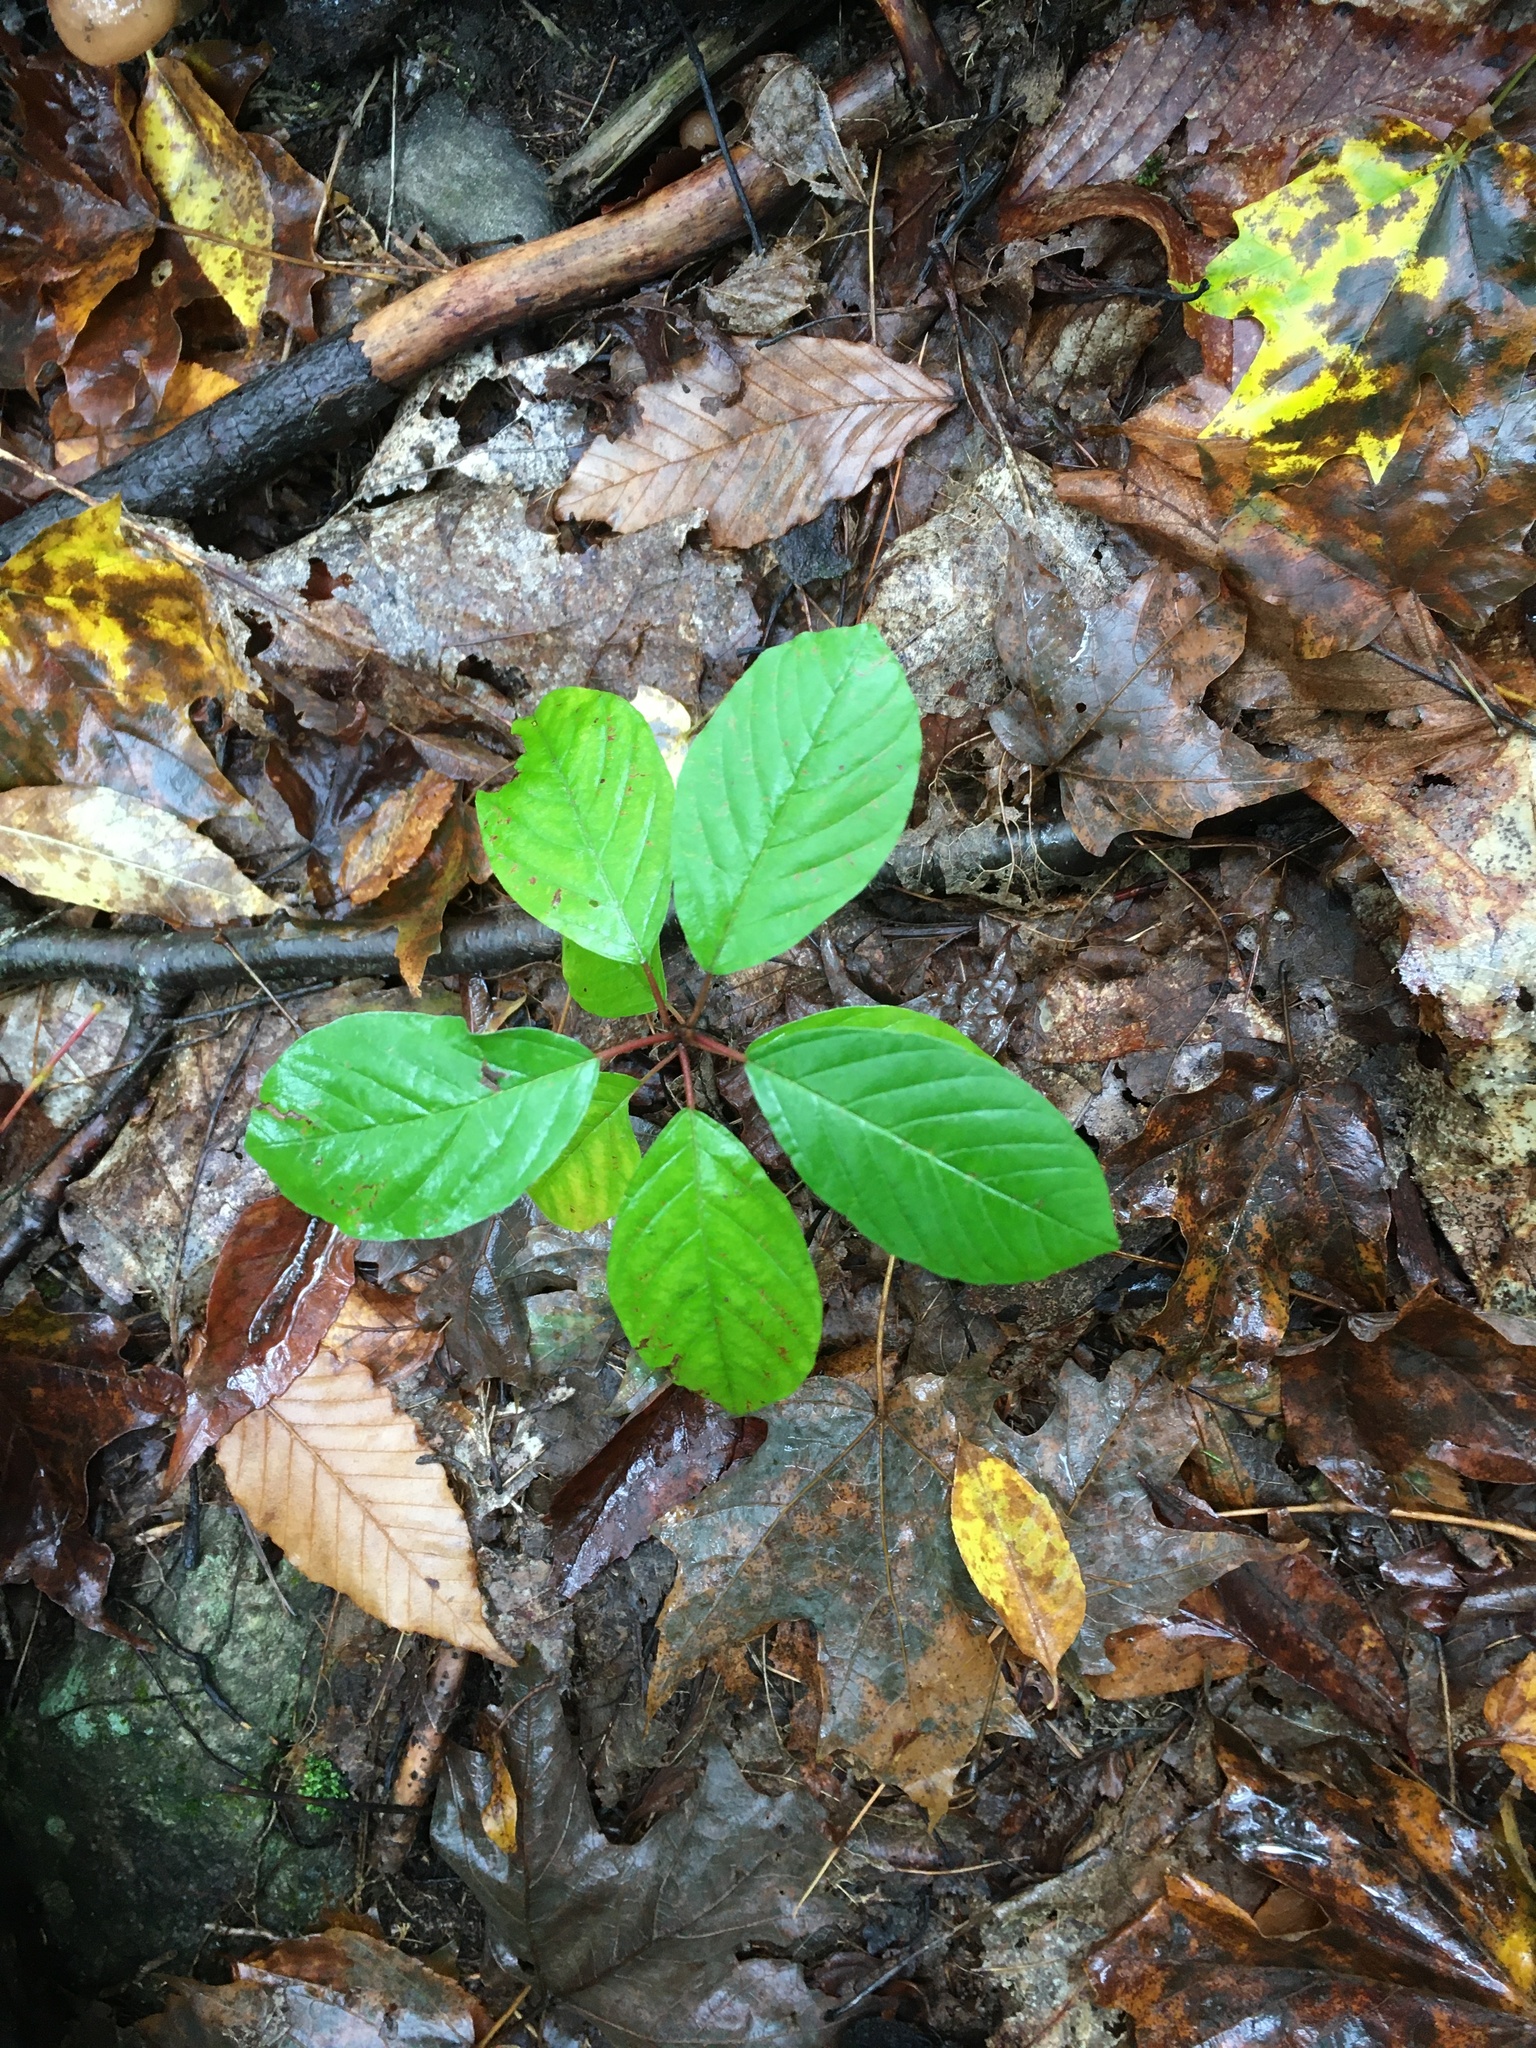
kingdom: Plantae
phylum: Tracheophyta
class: Magnoliopsida
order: Rosales
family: Rhamnaceae
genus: Frangula
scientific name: Frangula alnus
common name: Alder buckthorn
